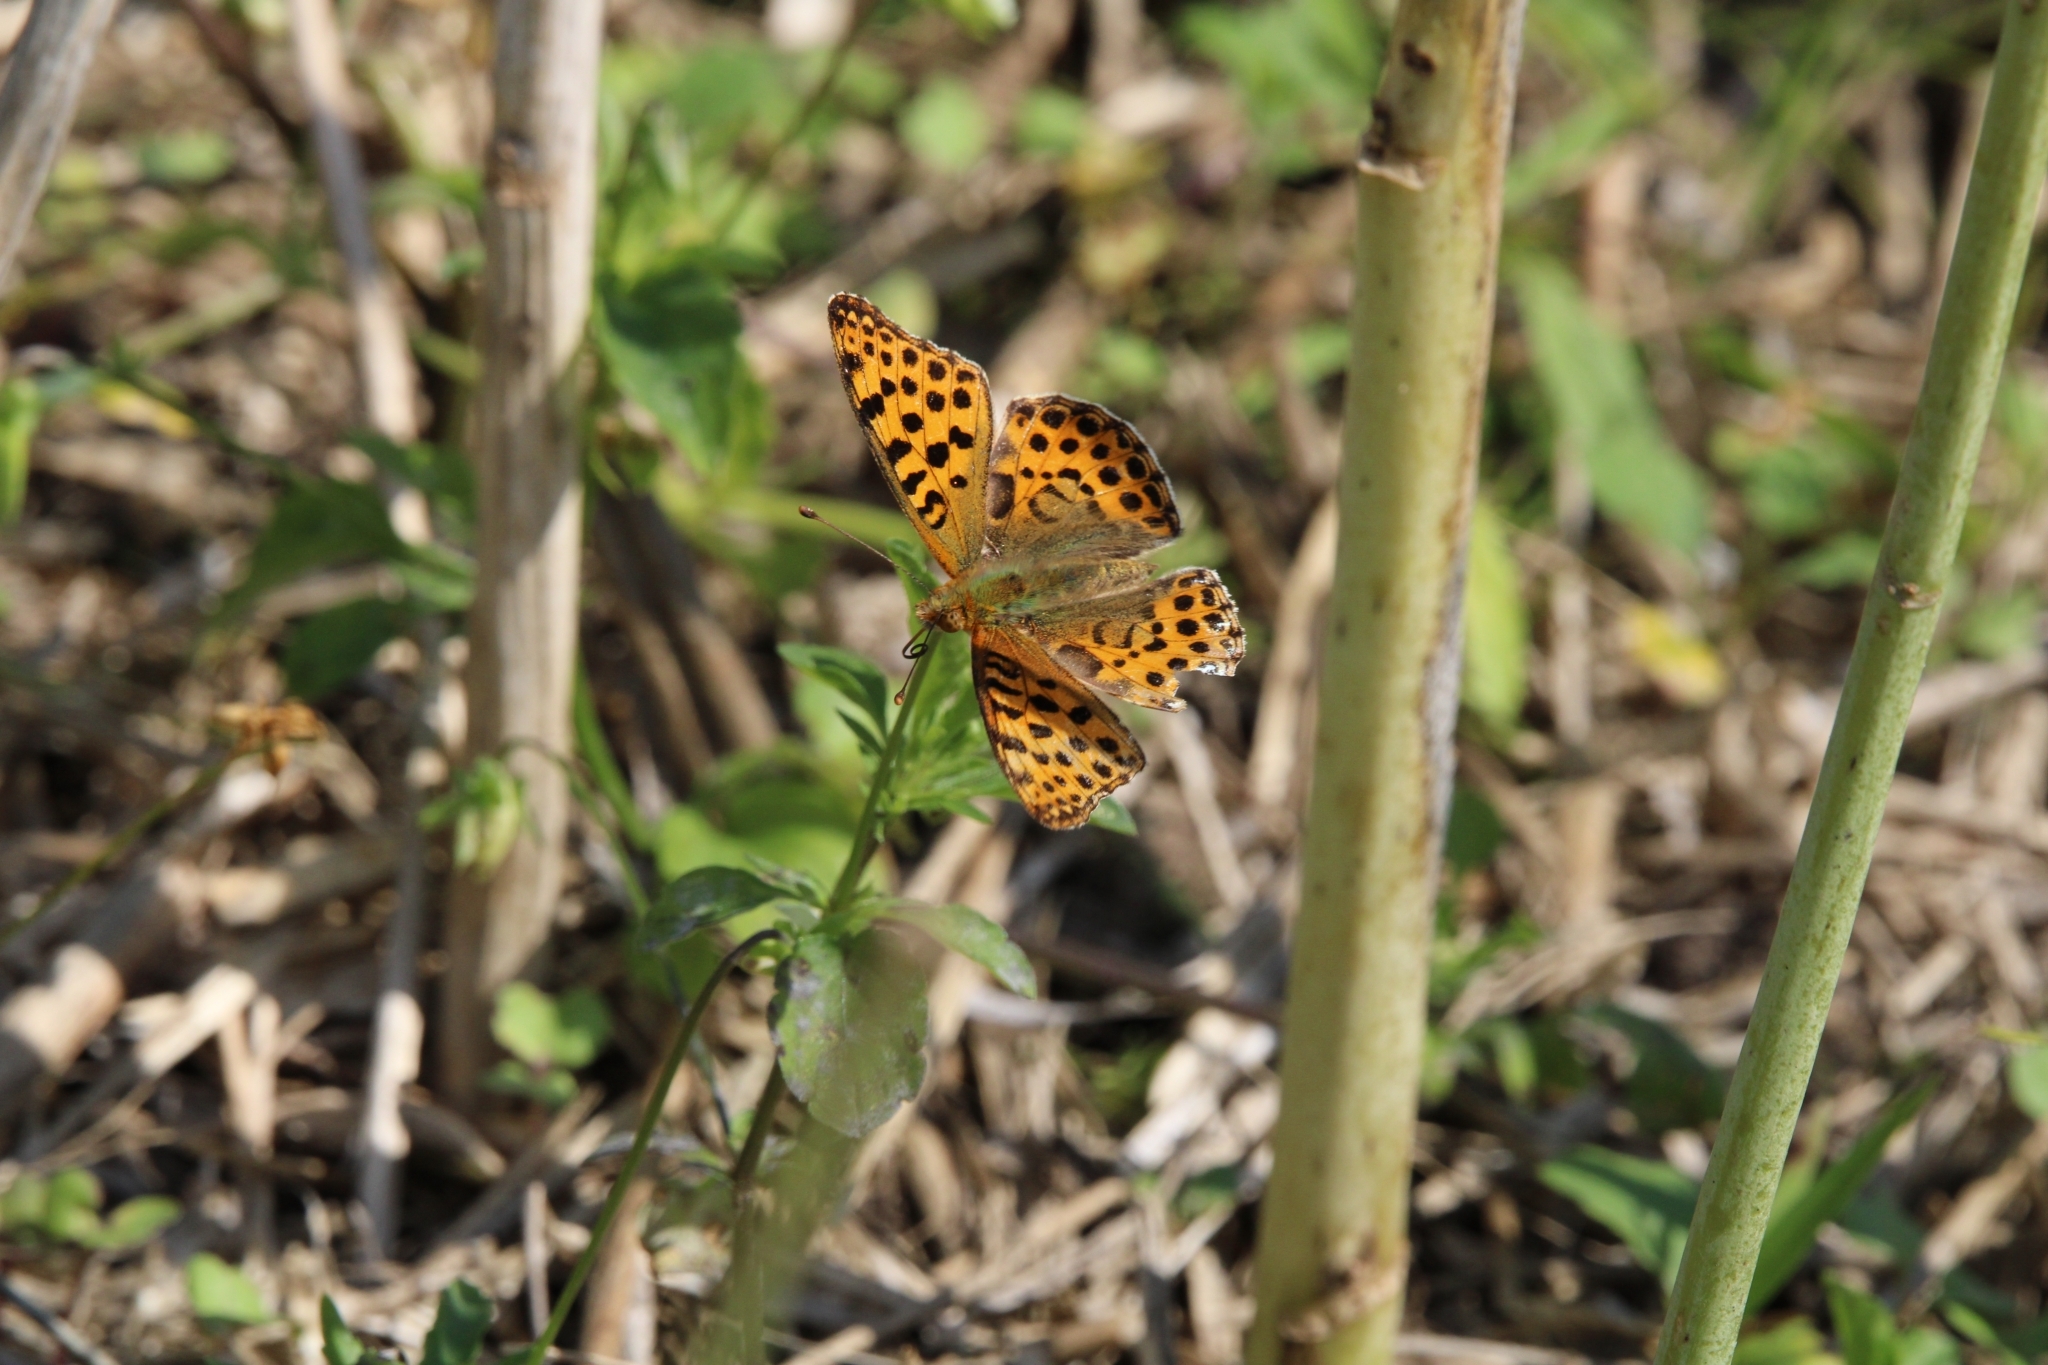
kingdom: Animalia
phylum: Arthropoda
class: Insecta
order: Lepidoptera
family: Nymphalidae
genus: Issoria
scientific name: Issoria lathonia
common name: Queen of spain fritillary
